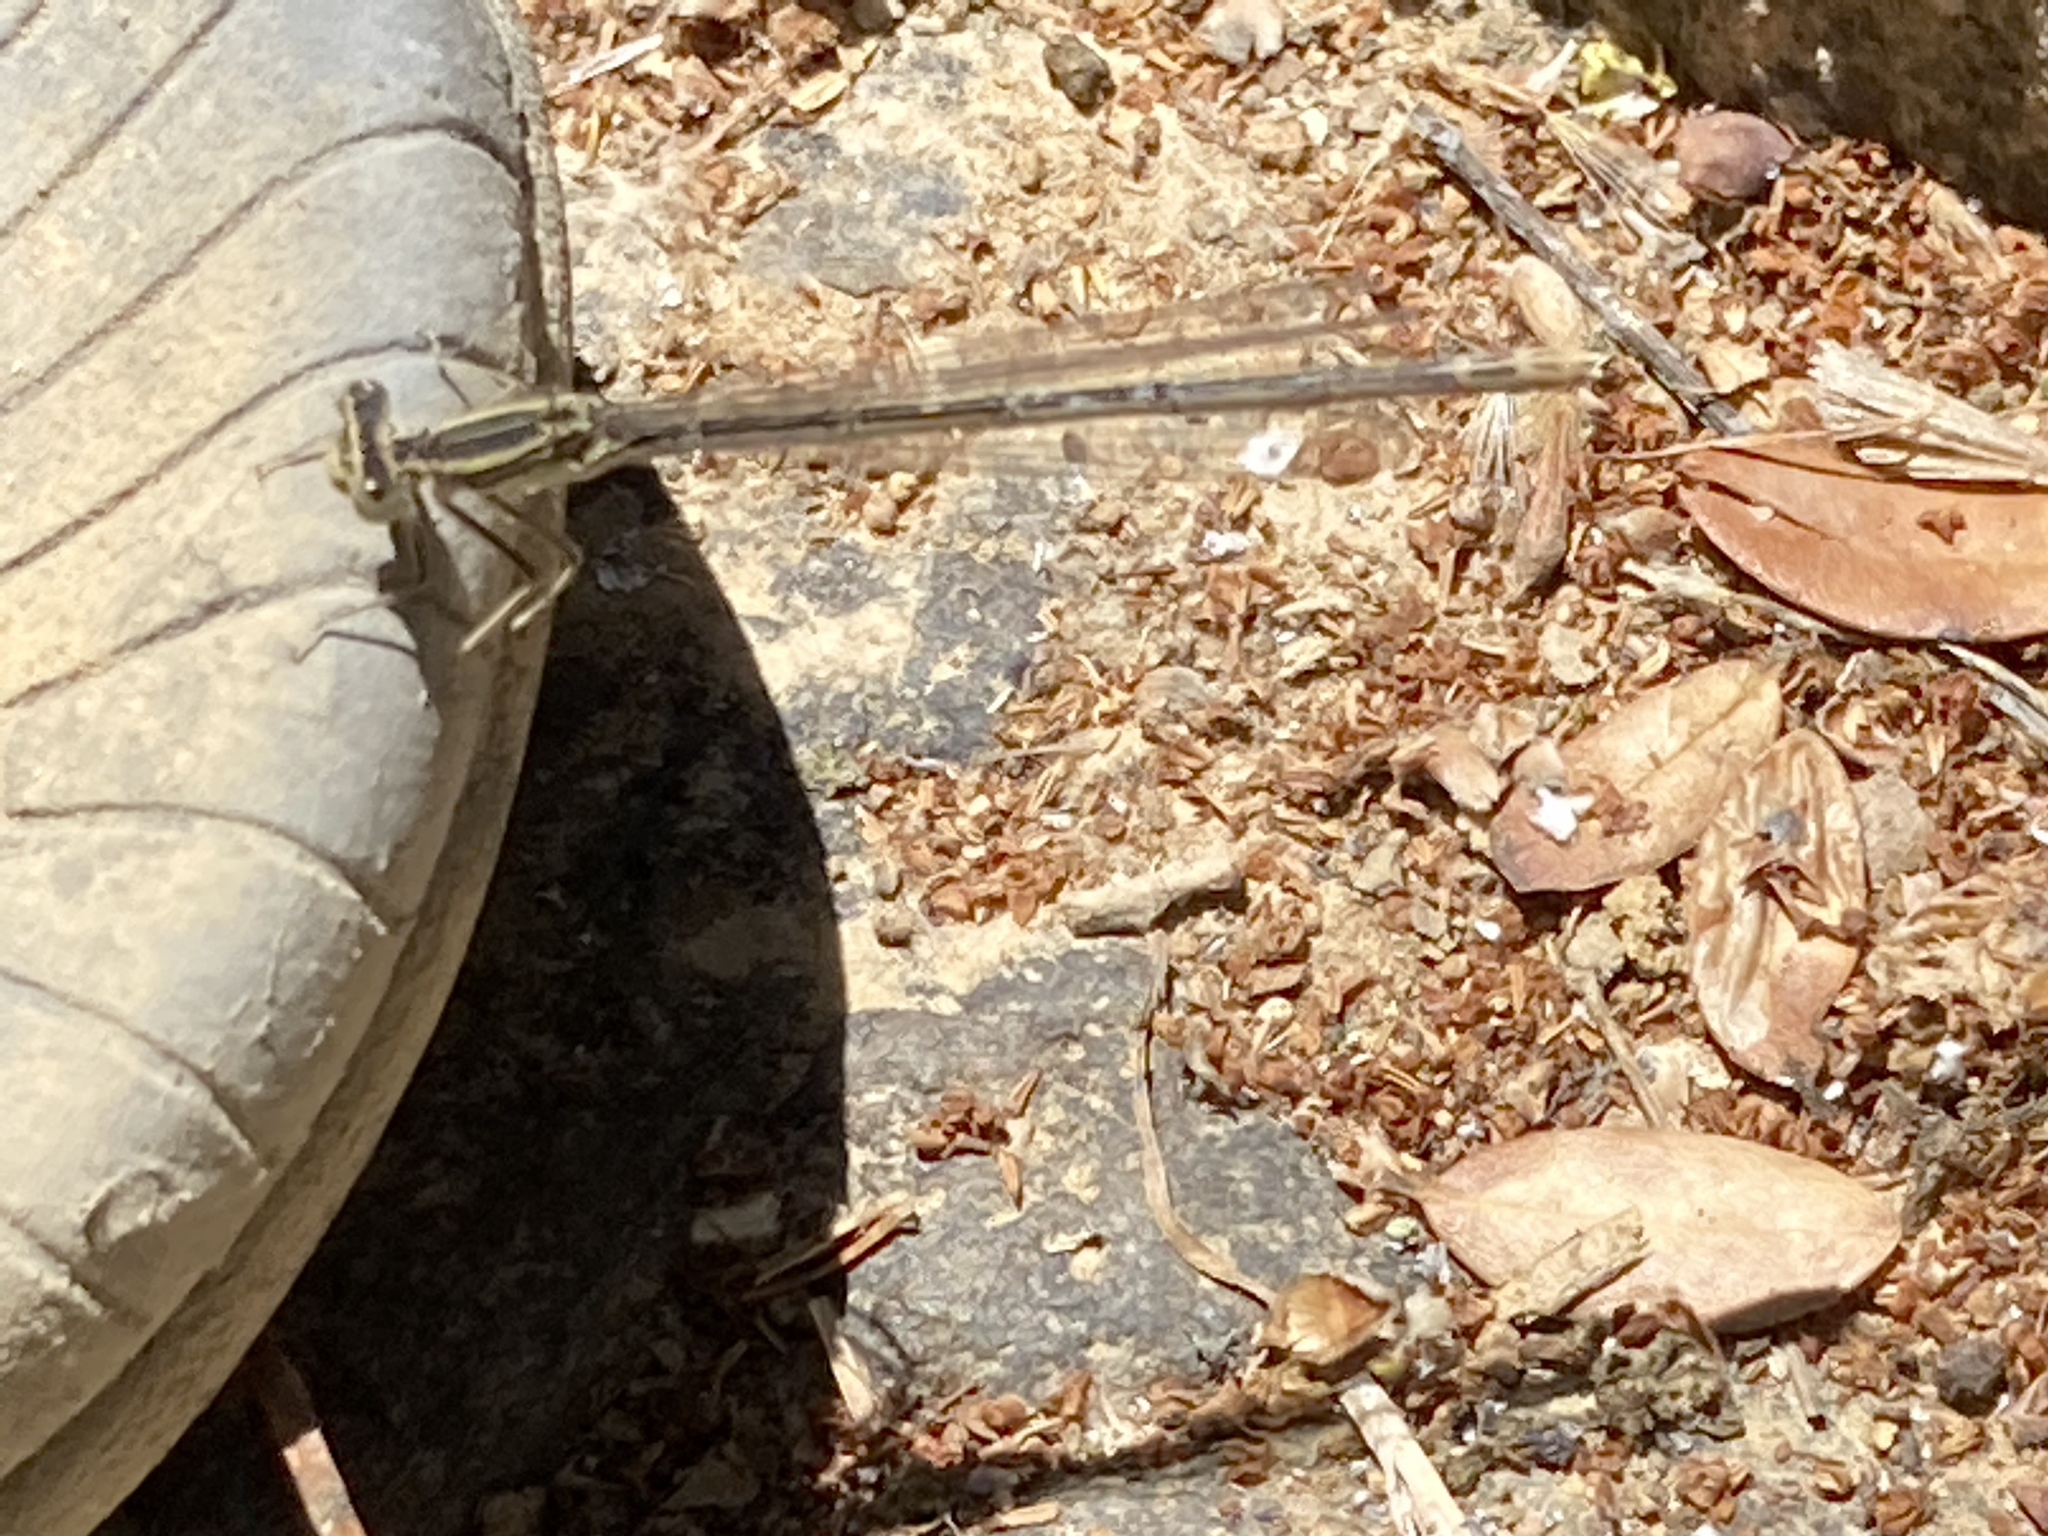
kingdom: Animalia
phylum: Arthropoda
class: Insecta
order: Odonata
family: Platycnemididae
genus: Platycnemis
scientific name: Platycnemis pennipes
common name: White-legged damselfly
